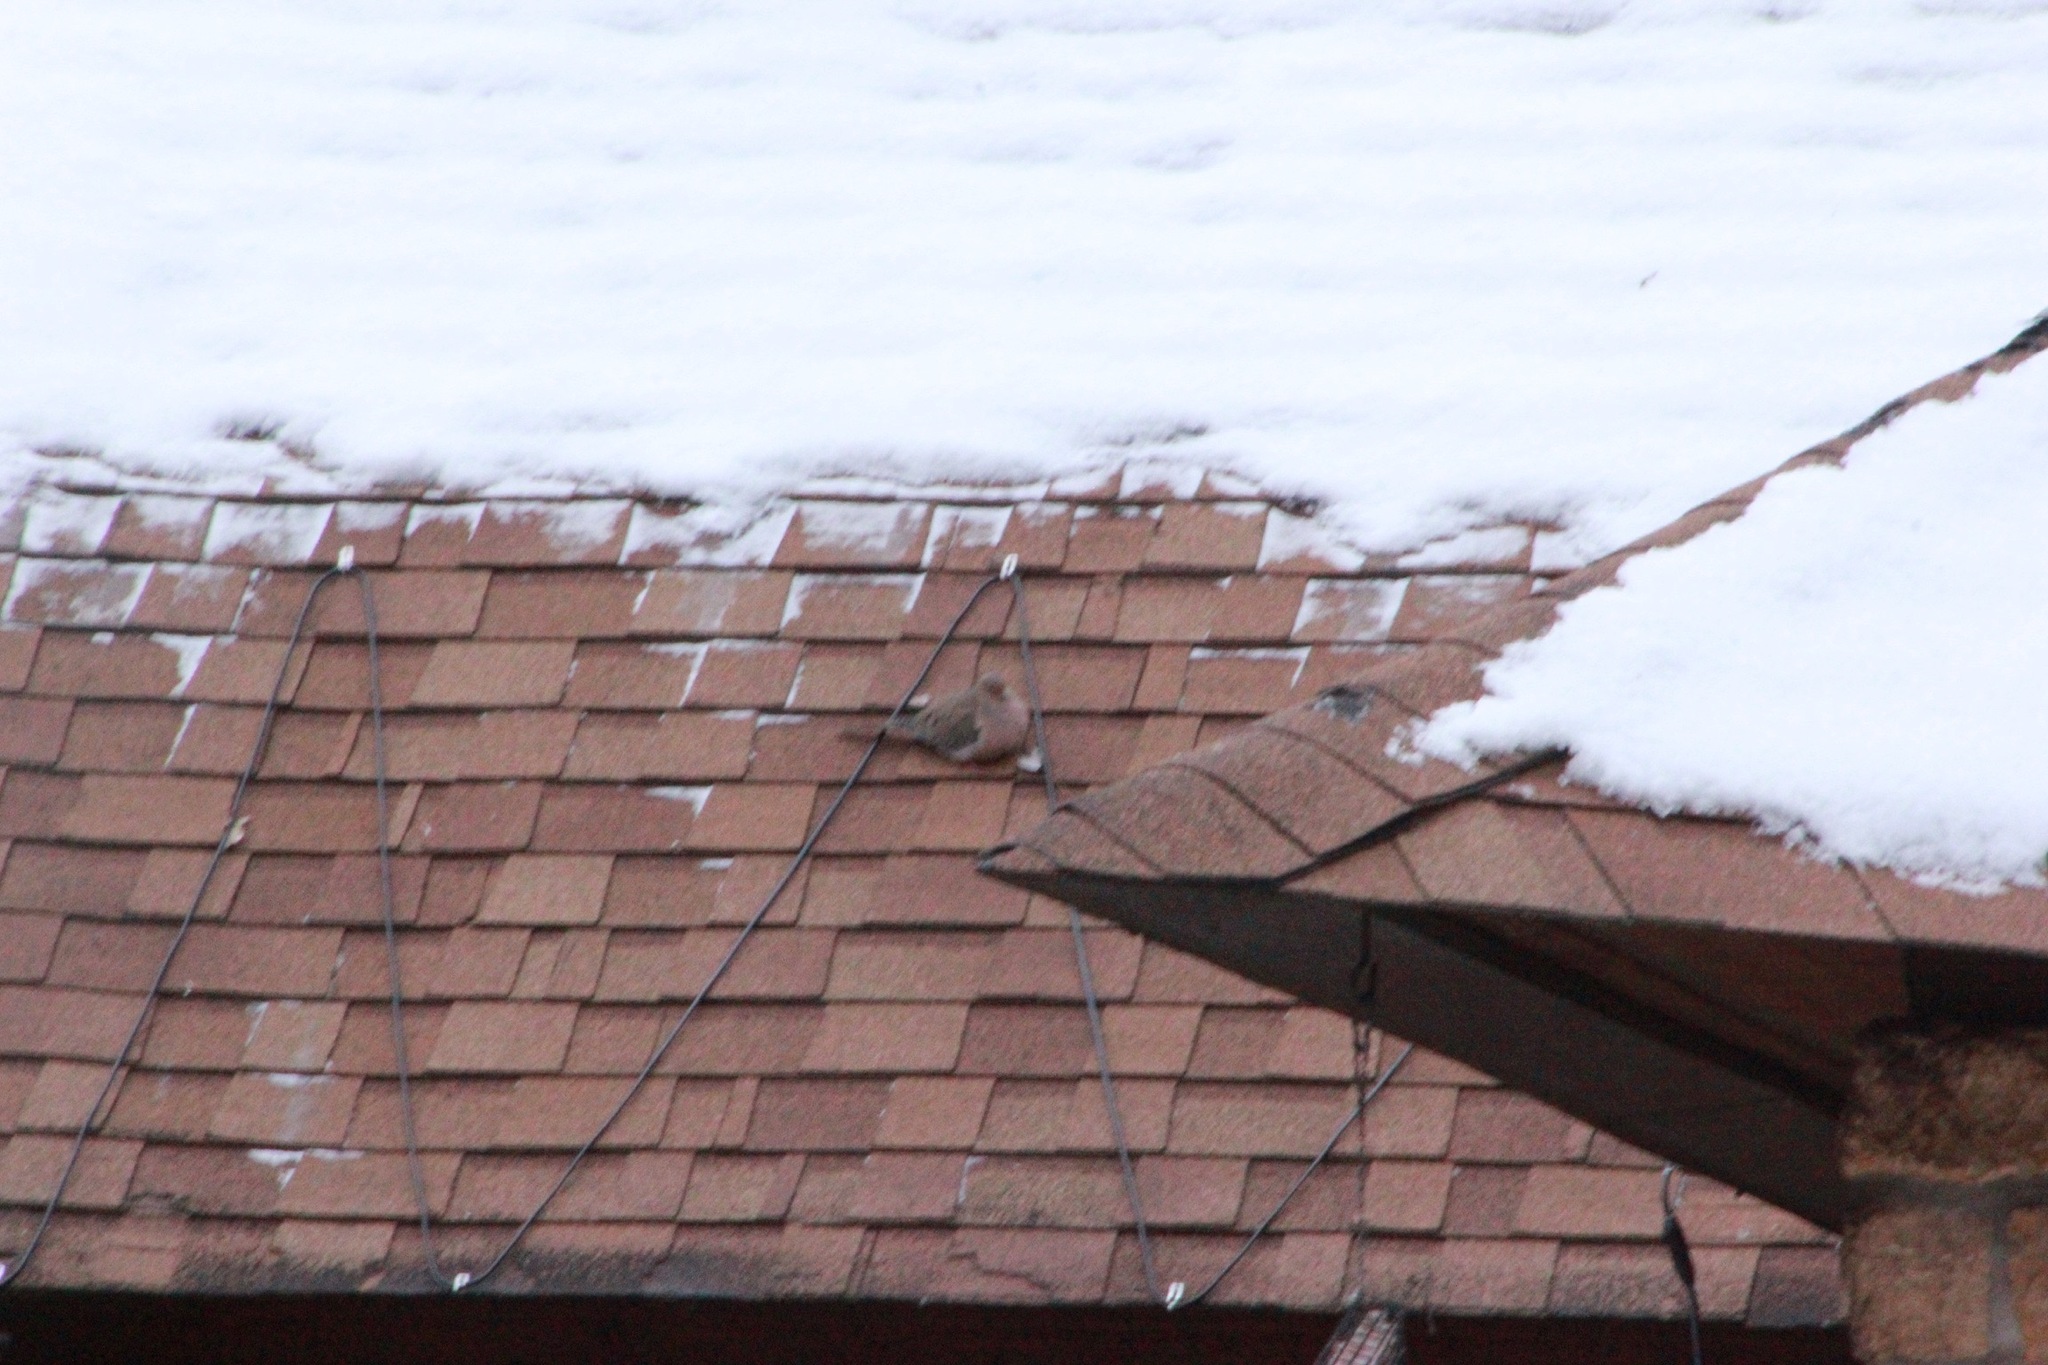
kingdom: Animalia
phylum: Chordata
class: Aves
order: Columbiformes
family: Columbidae
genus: Zenaida
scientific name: Zenaida macroura
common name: Mourning dove
